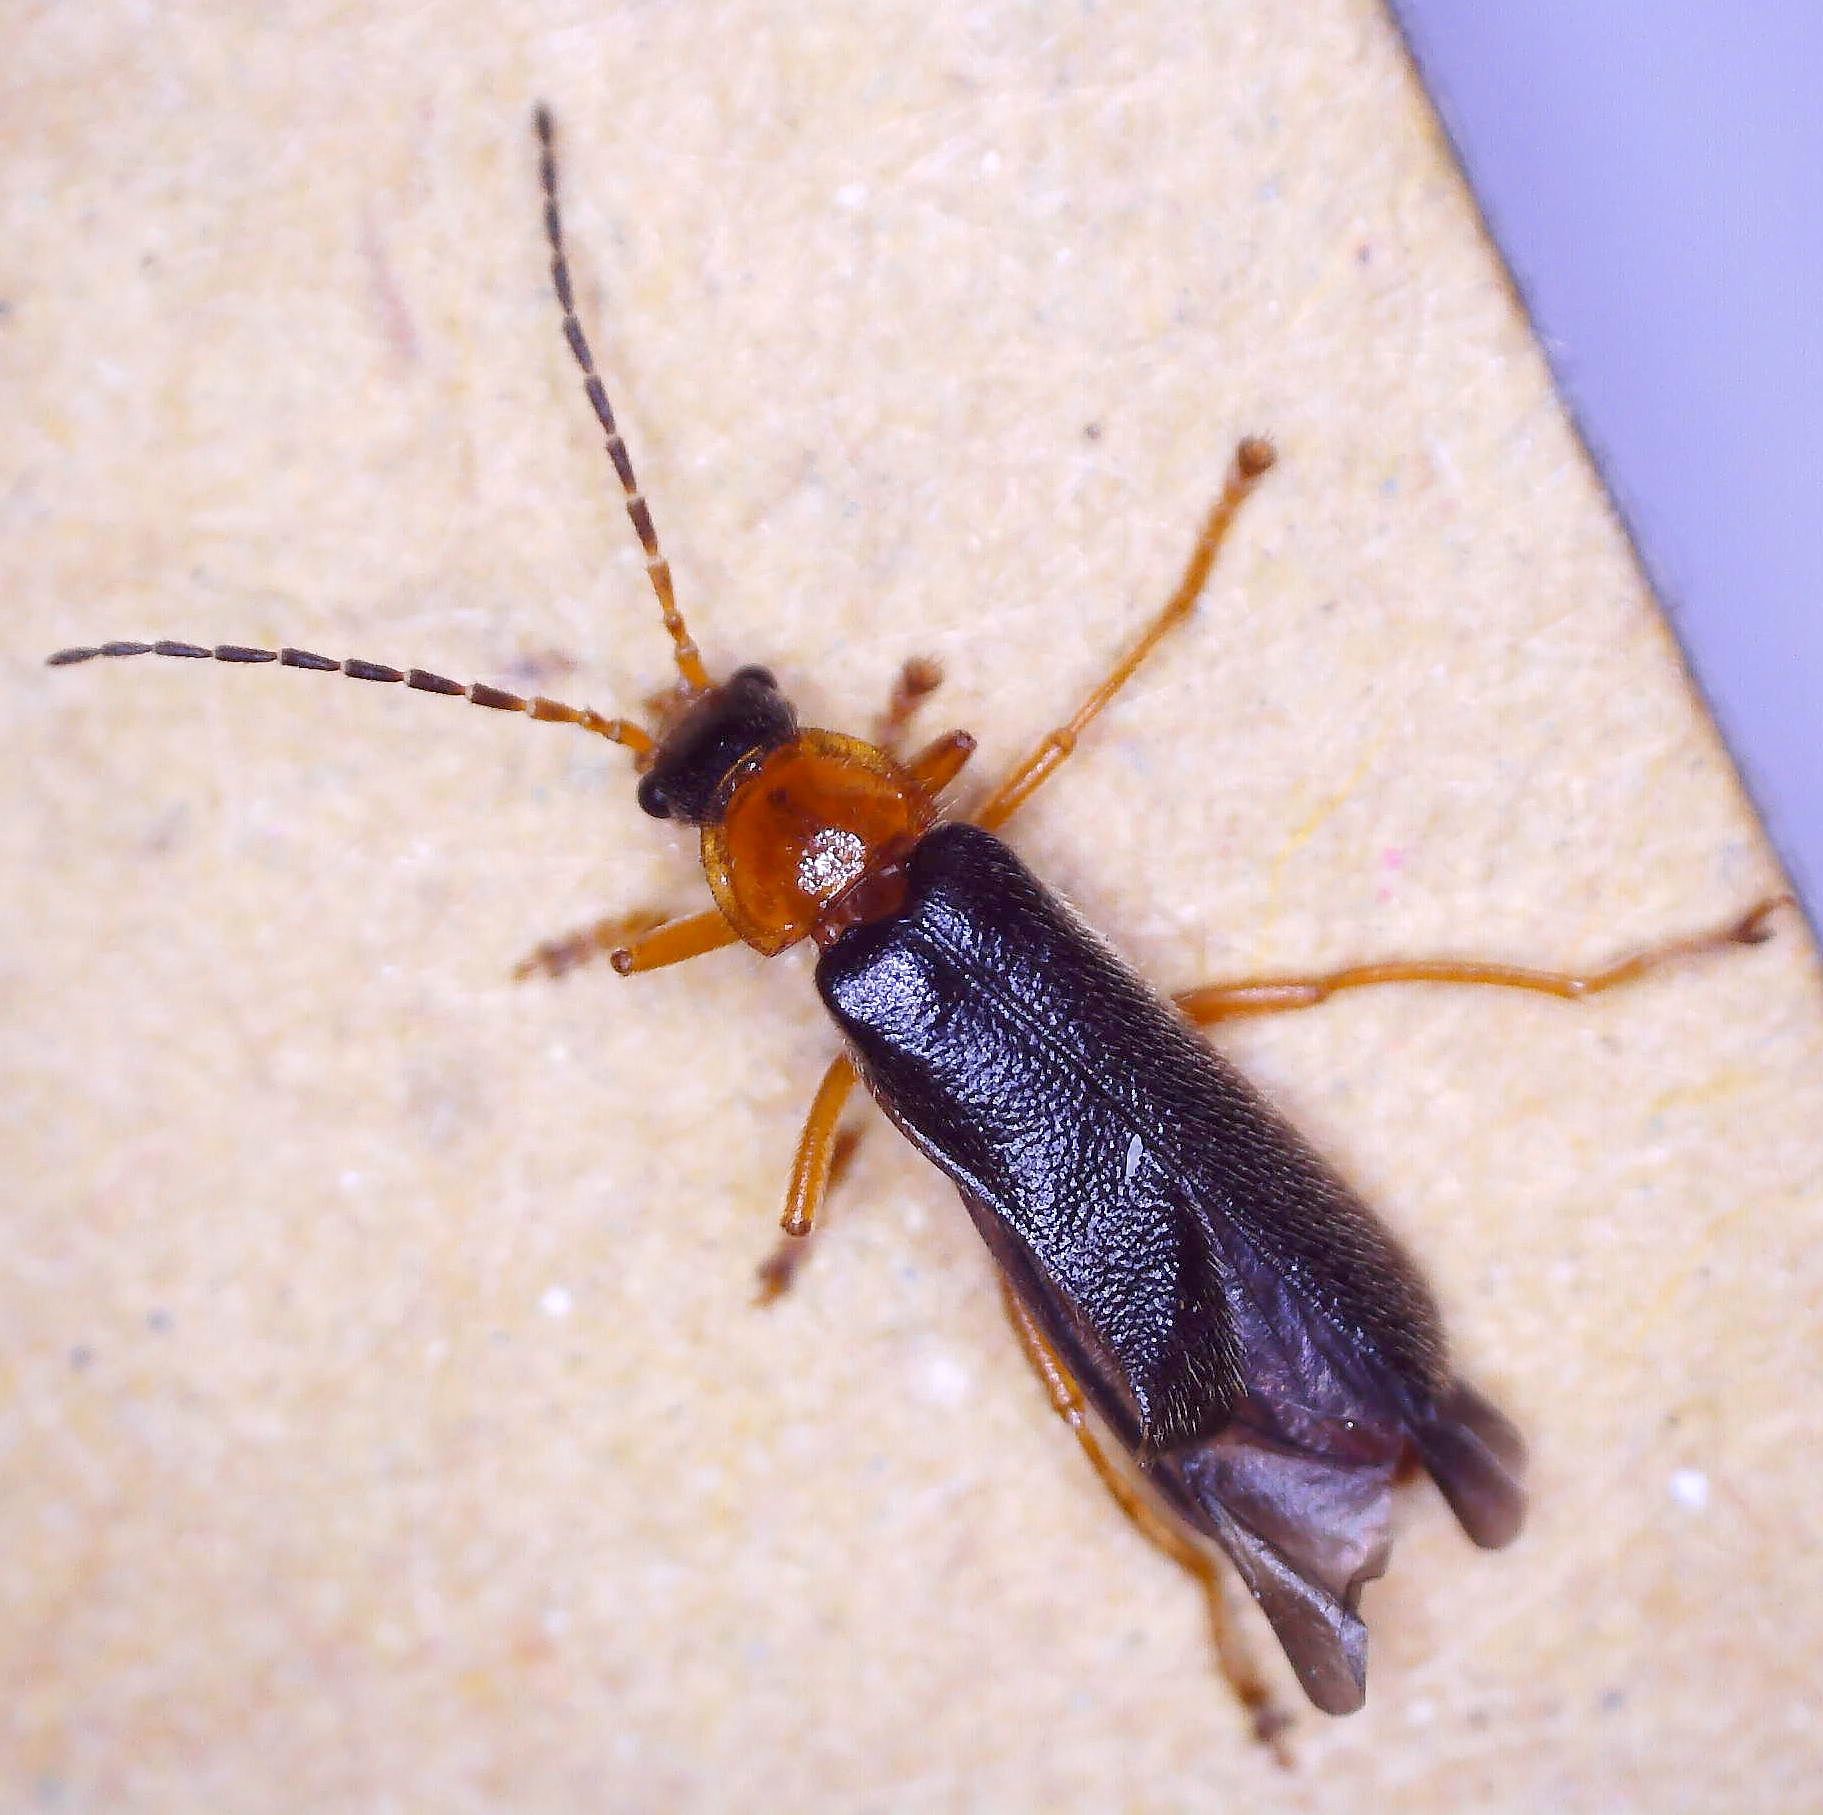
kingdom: Animalia
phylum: Arthropoda
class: Insecta
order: Coleoptera
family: Cantharidae
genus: Cantharis
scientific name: Cantharis nigra
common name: Cantharid beetle
